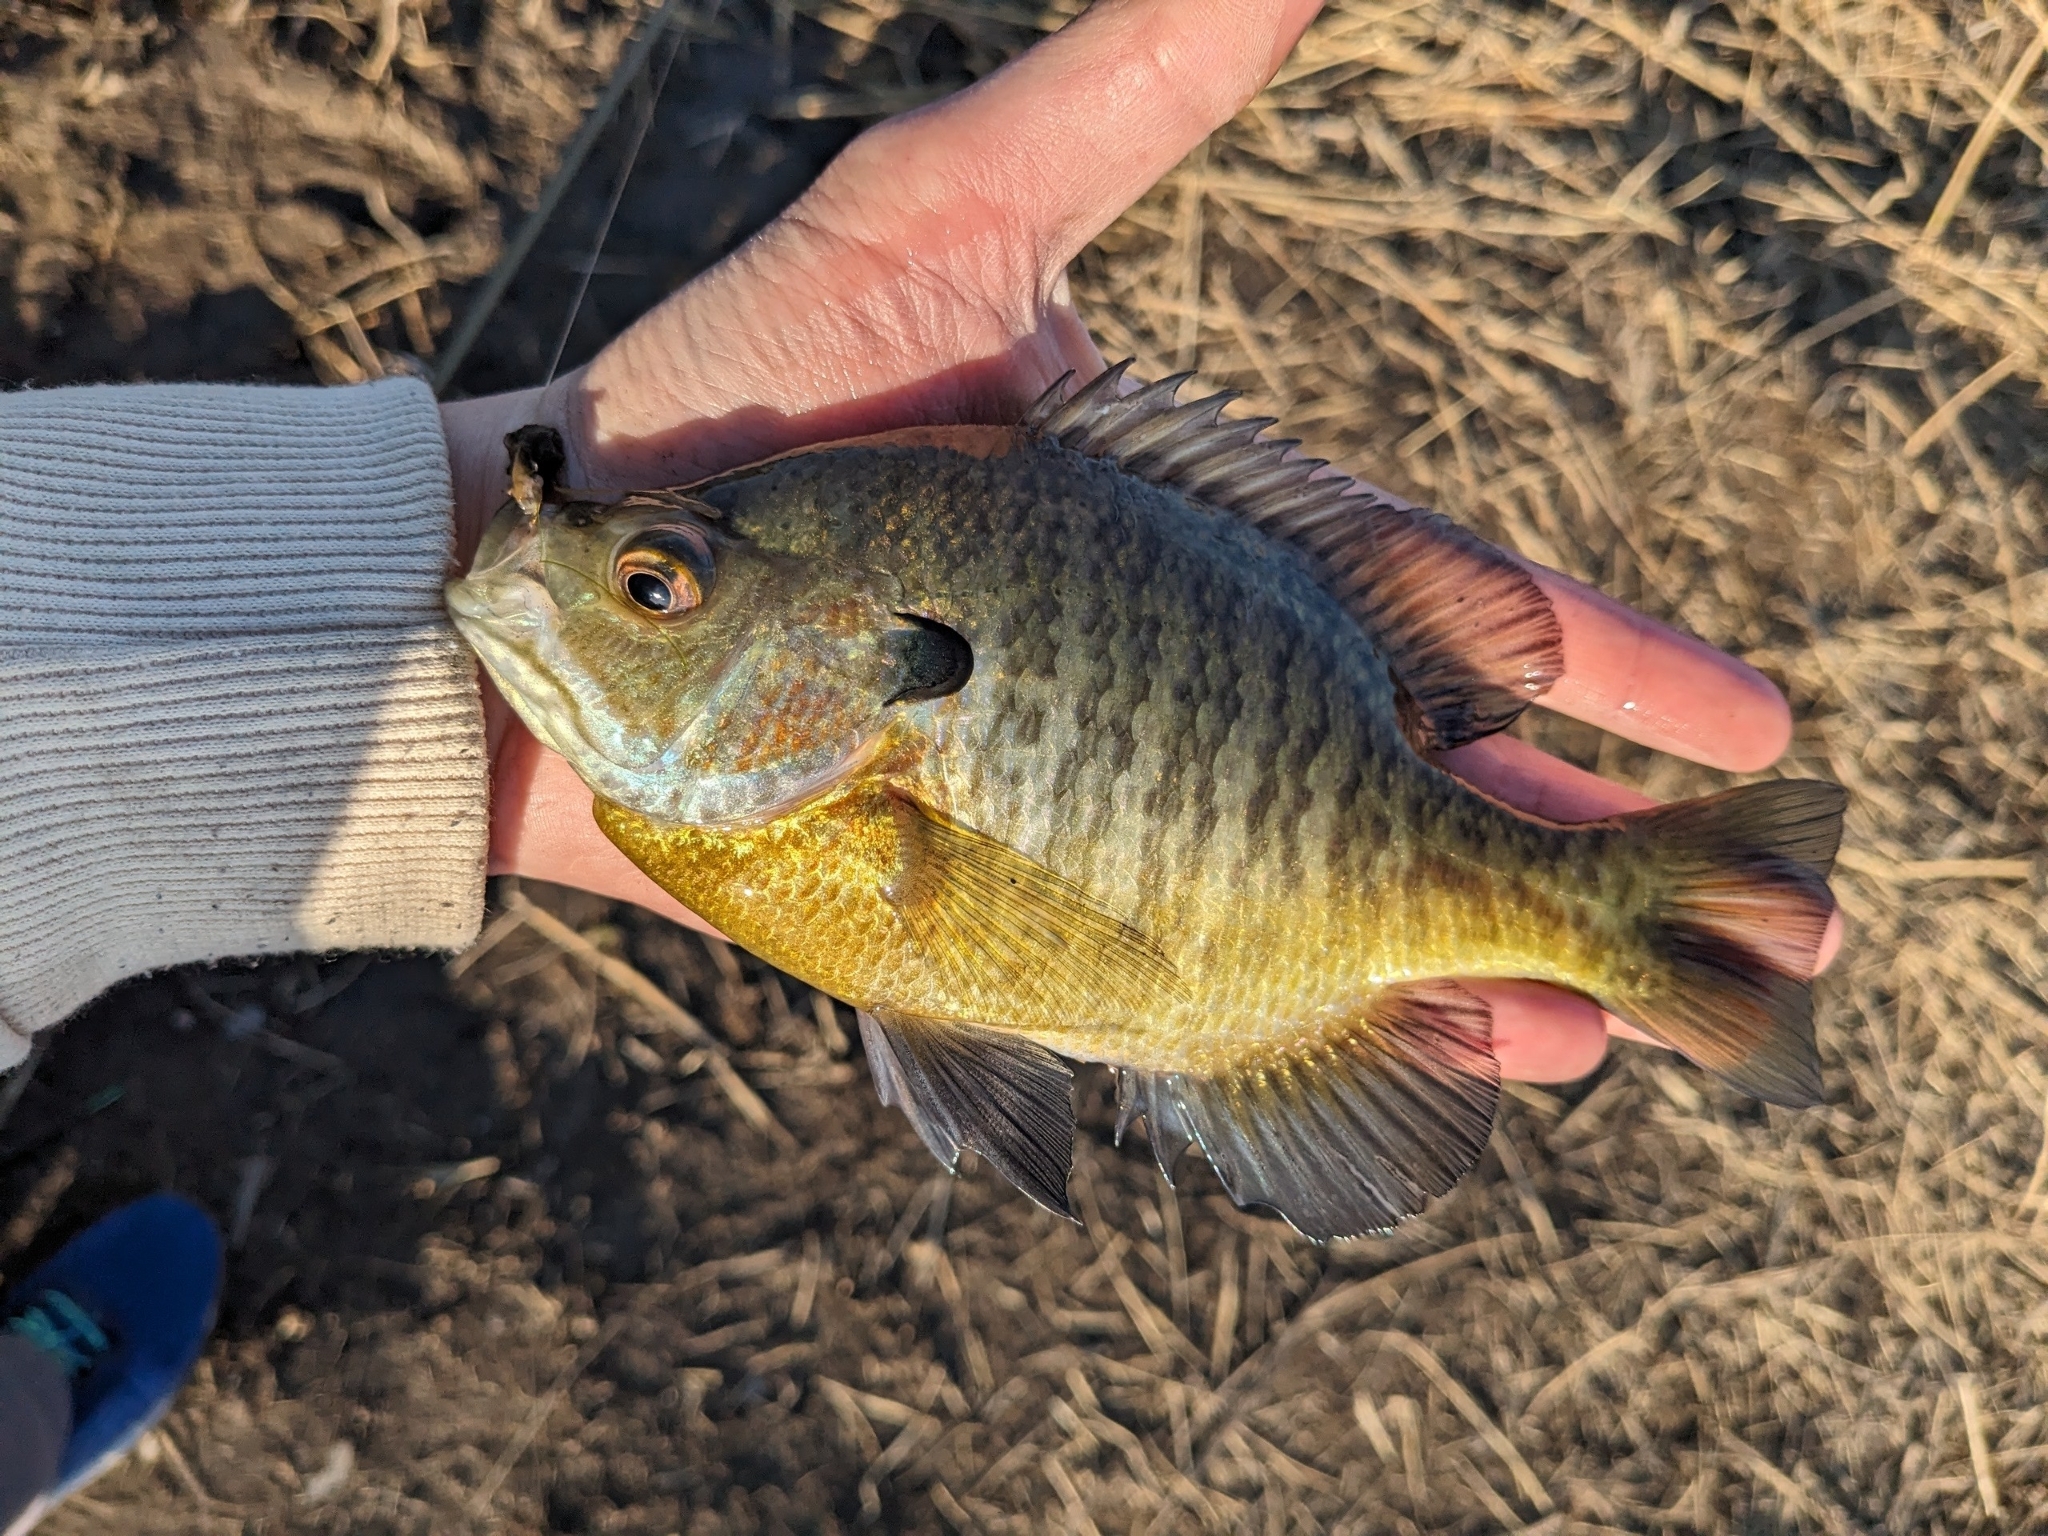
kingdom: Animalia
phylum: Chordata
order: Perciformes
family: Centrarchidae
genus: Lepomis
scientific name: Lepomis macrochirus
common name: Bluegill
